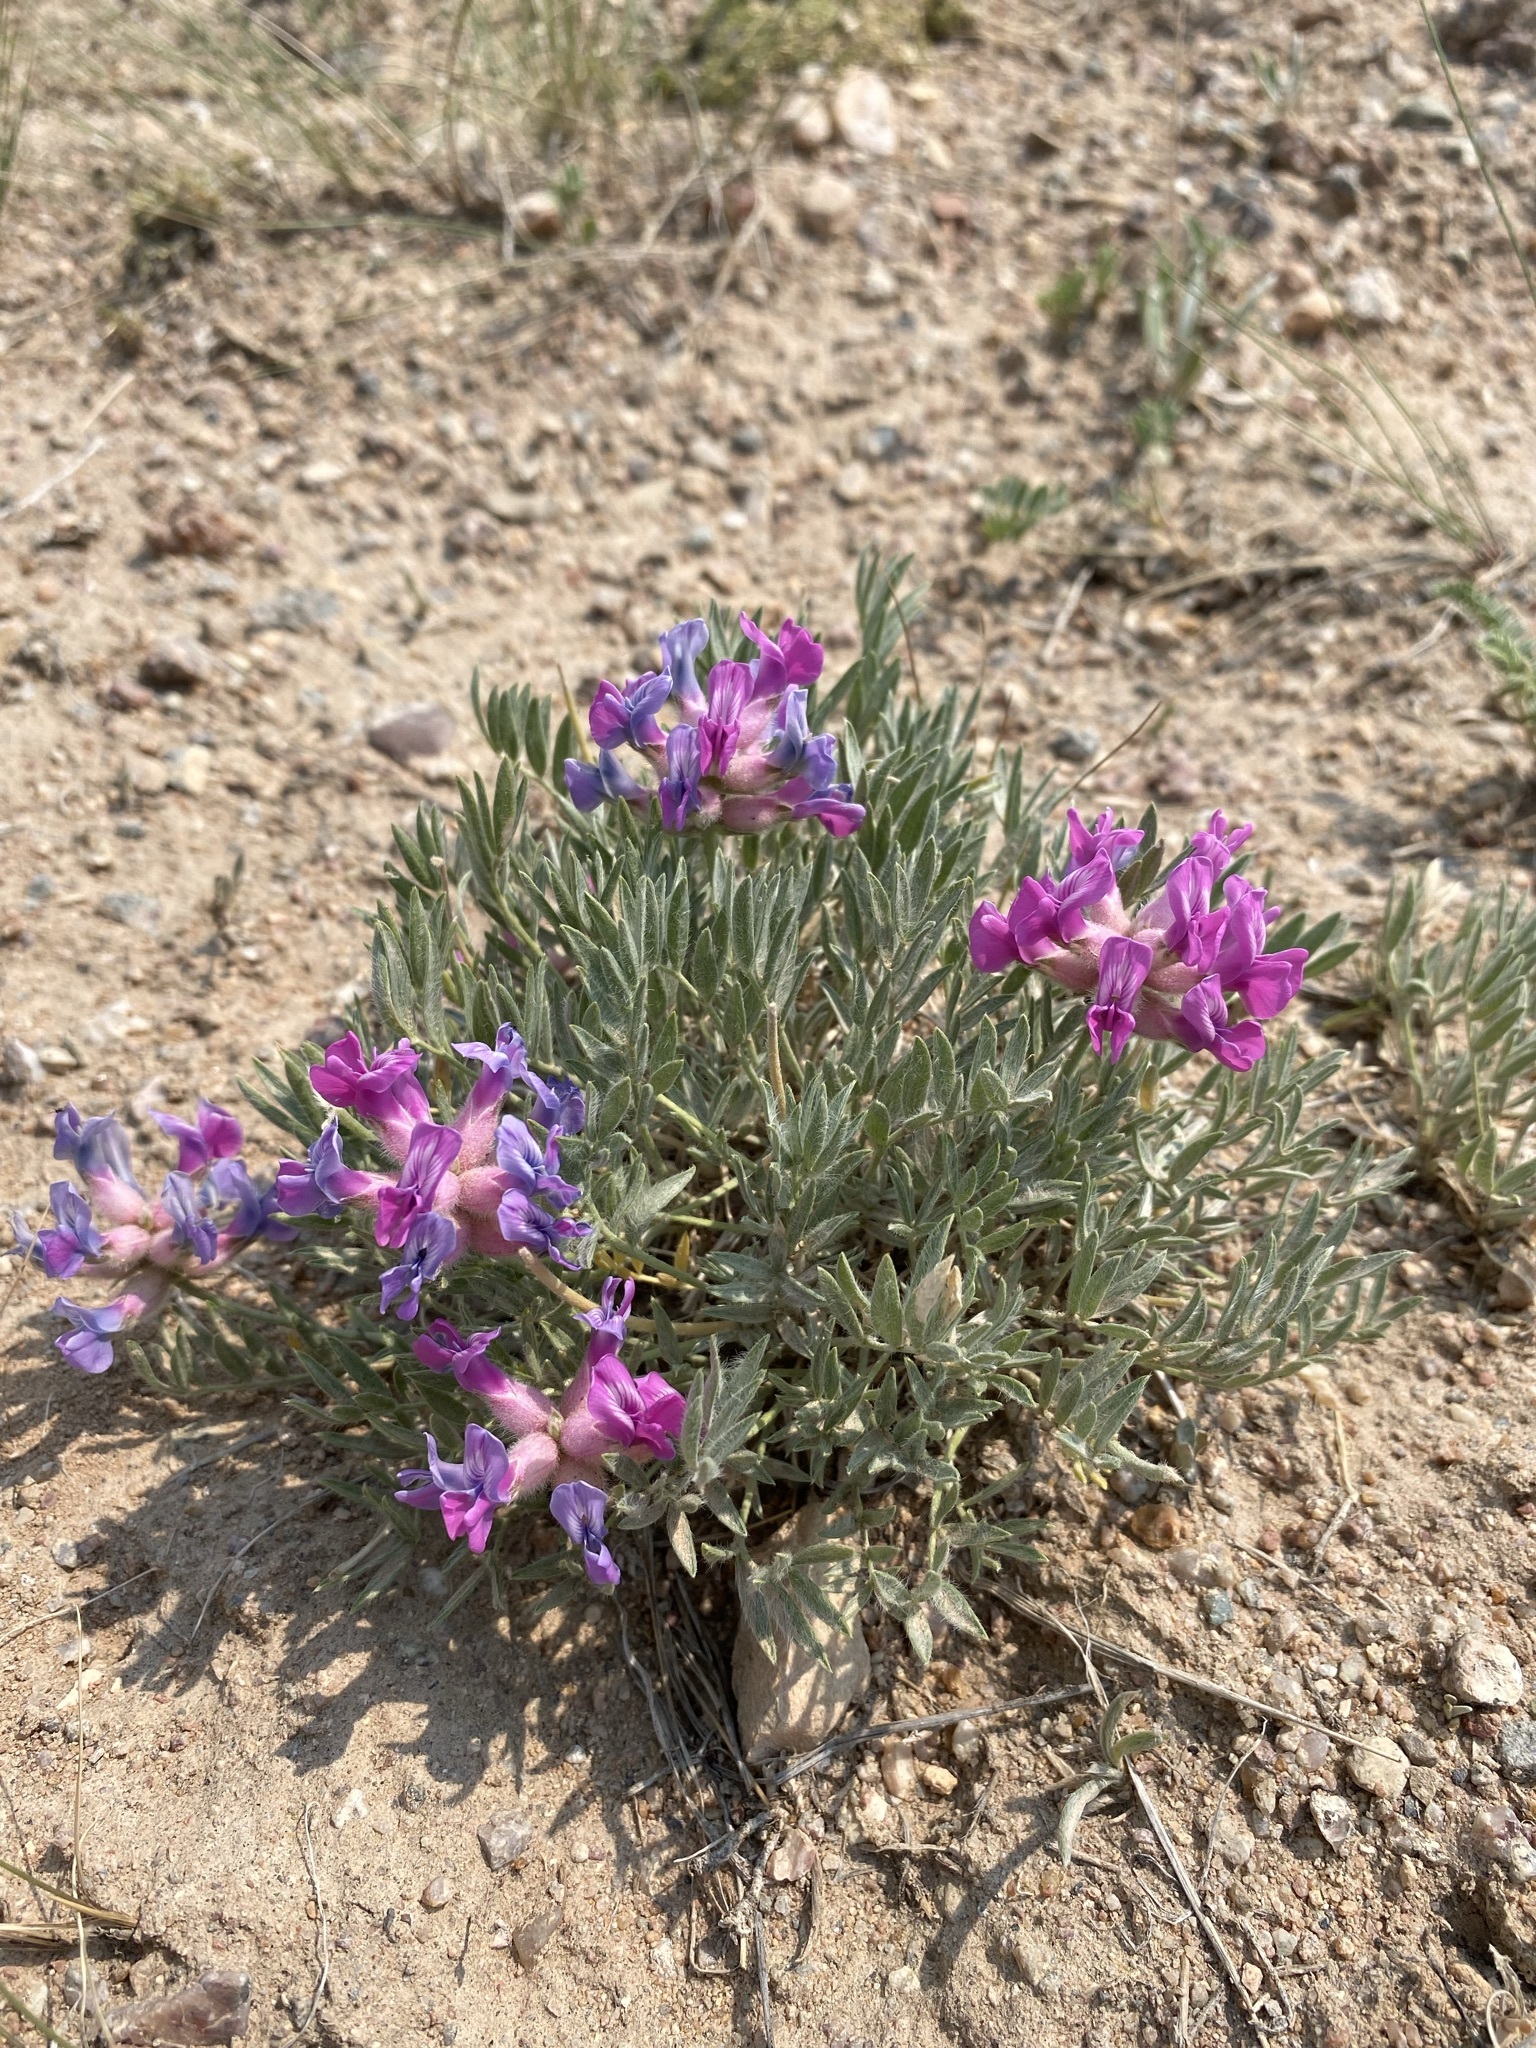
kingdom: Plantae
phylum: Tracheophyta
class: Magnoliopsida
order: Fabales
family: Fabaceae
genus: Oxytropis
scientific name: Oxytropis besseyi
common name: Bessey's locoweed
